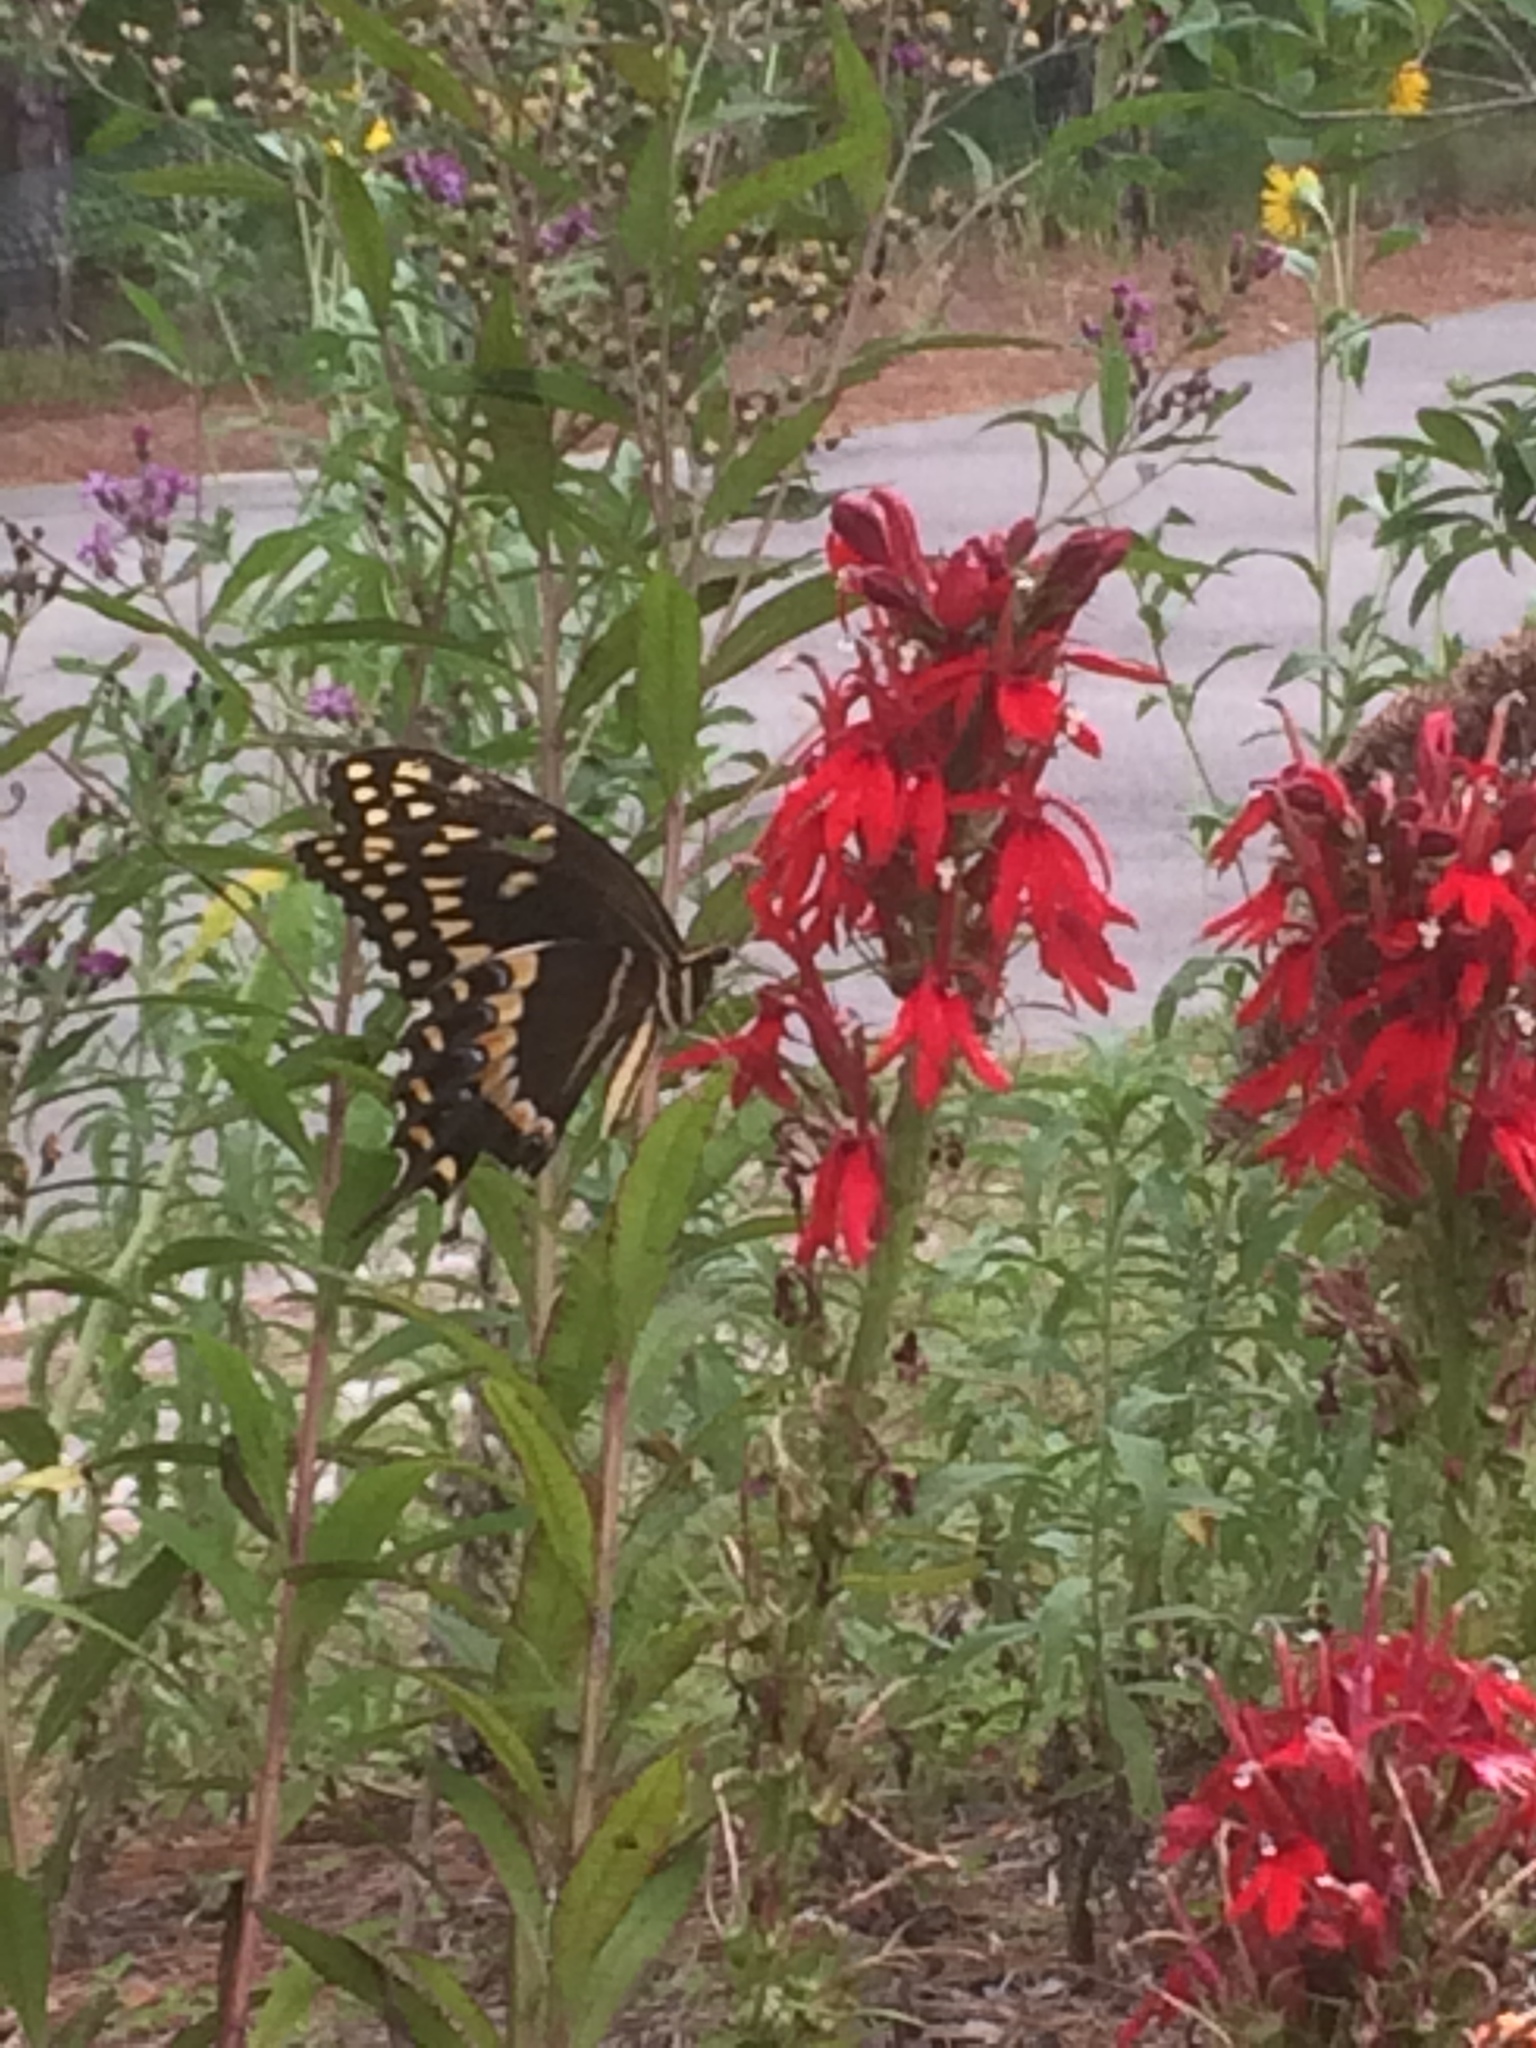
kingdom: Animalia
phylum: Arthropoda
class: Insecta
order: Lepidoptera
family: Papilionidae
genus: Papilio
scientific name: Papilio palamedes
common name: Palamedes swallowtail
